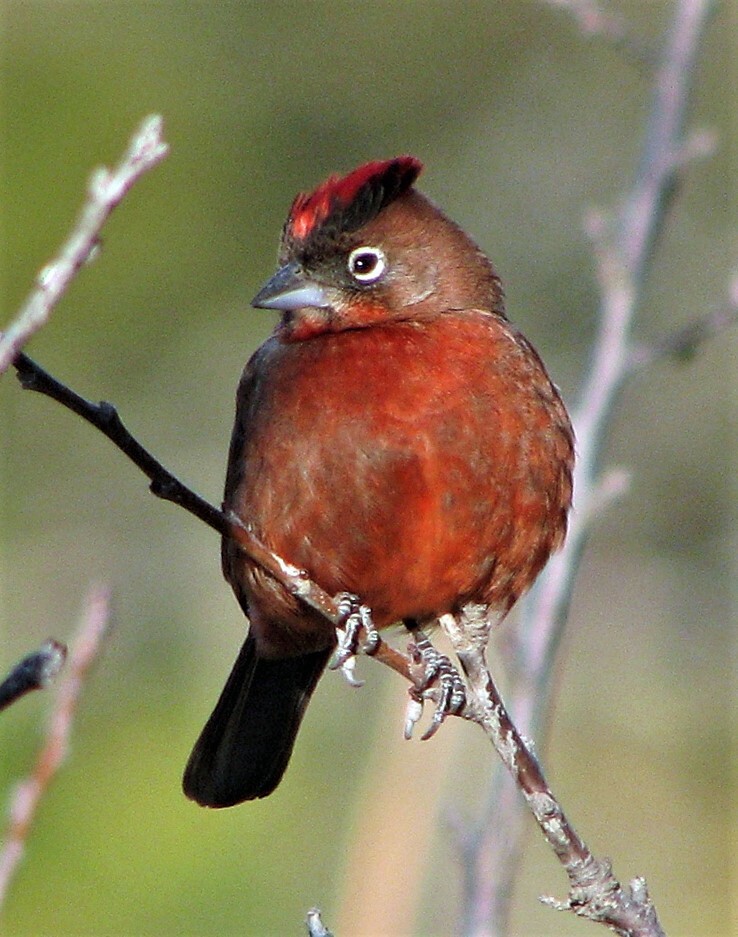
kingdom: Animalia
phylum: Chordata
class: Aves
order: Passeriformes
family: Thraupidae
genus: Coryphospingus
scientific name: Coryphospingus cucullatus
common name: Red pileated finch
